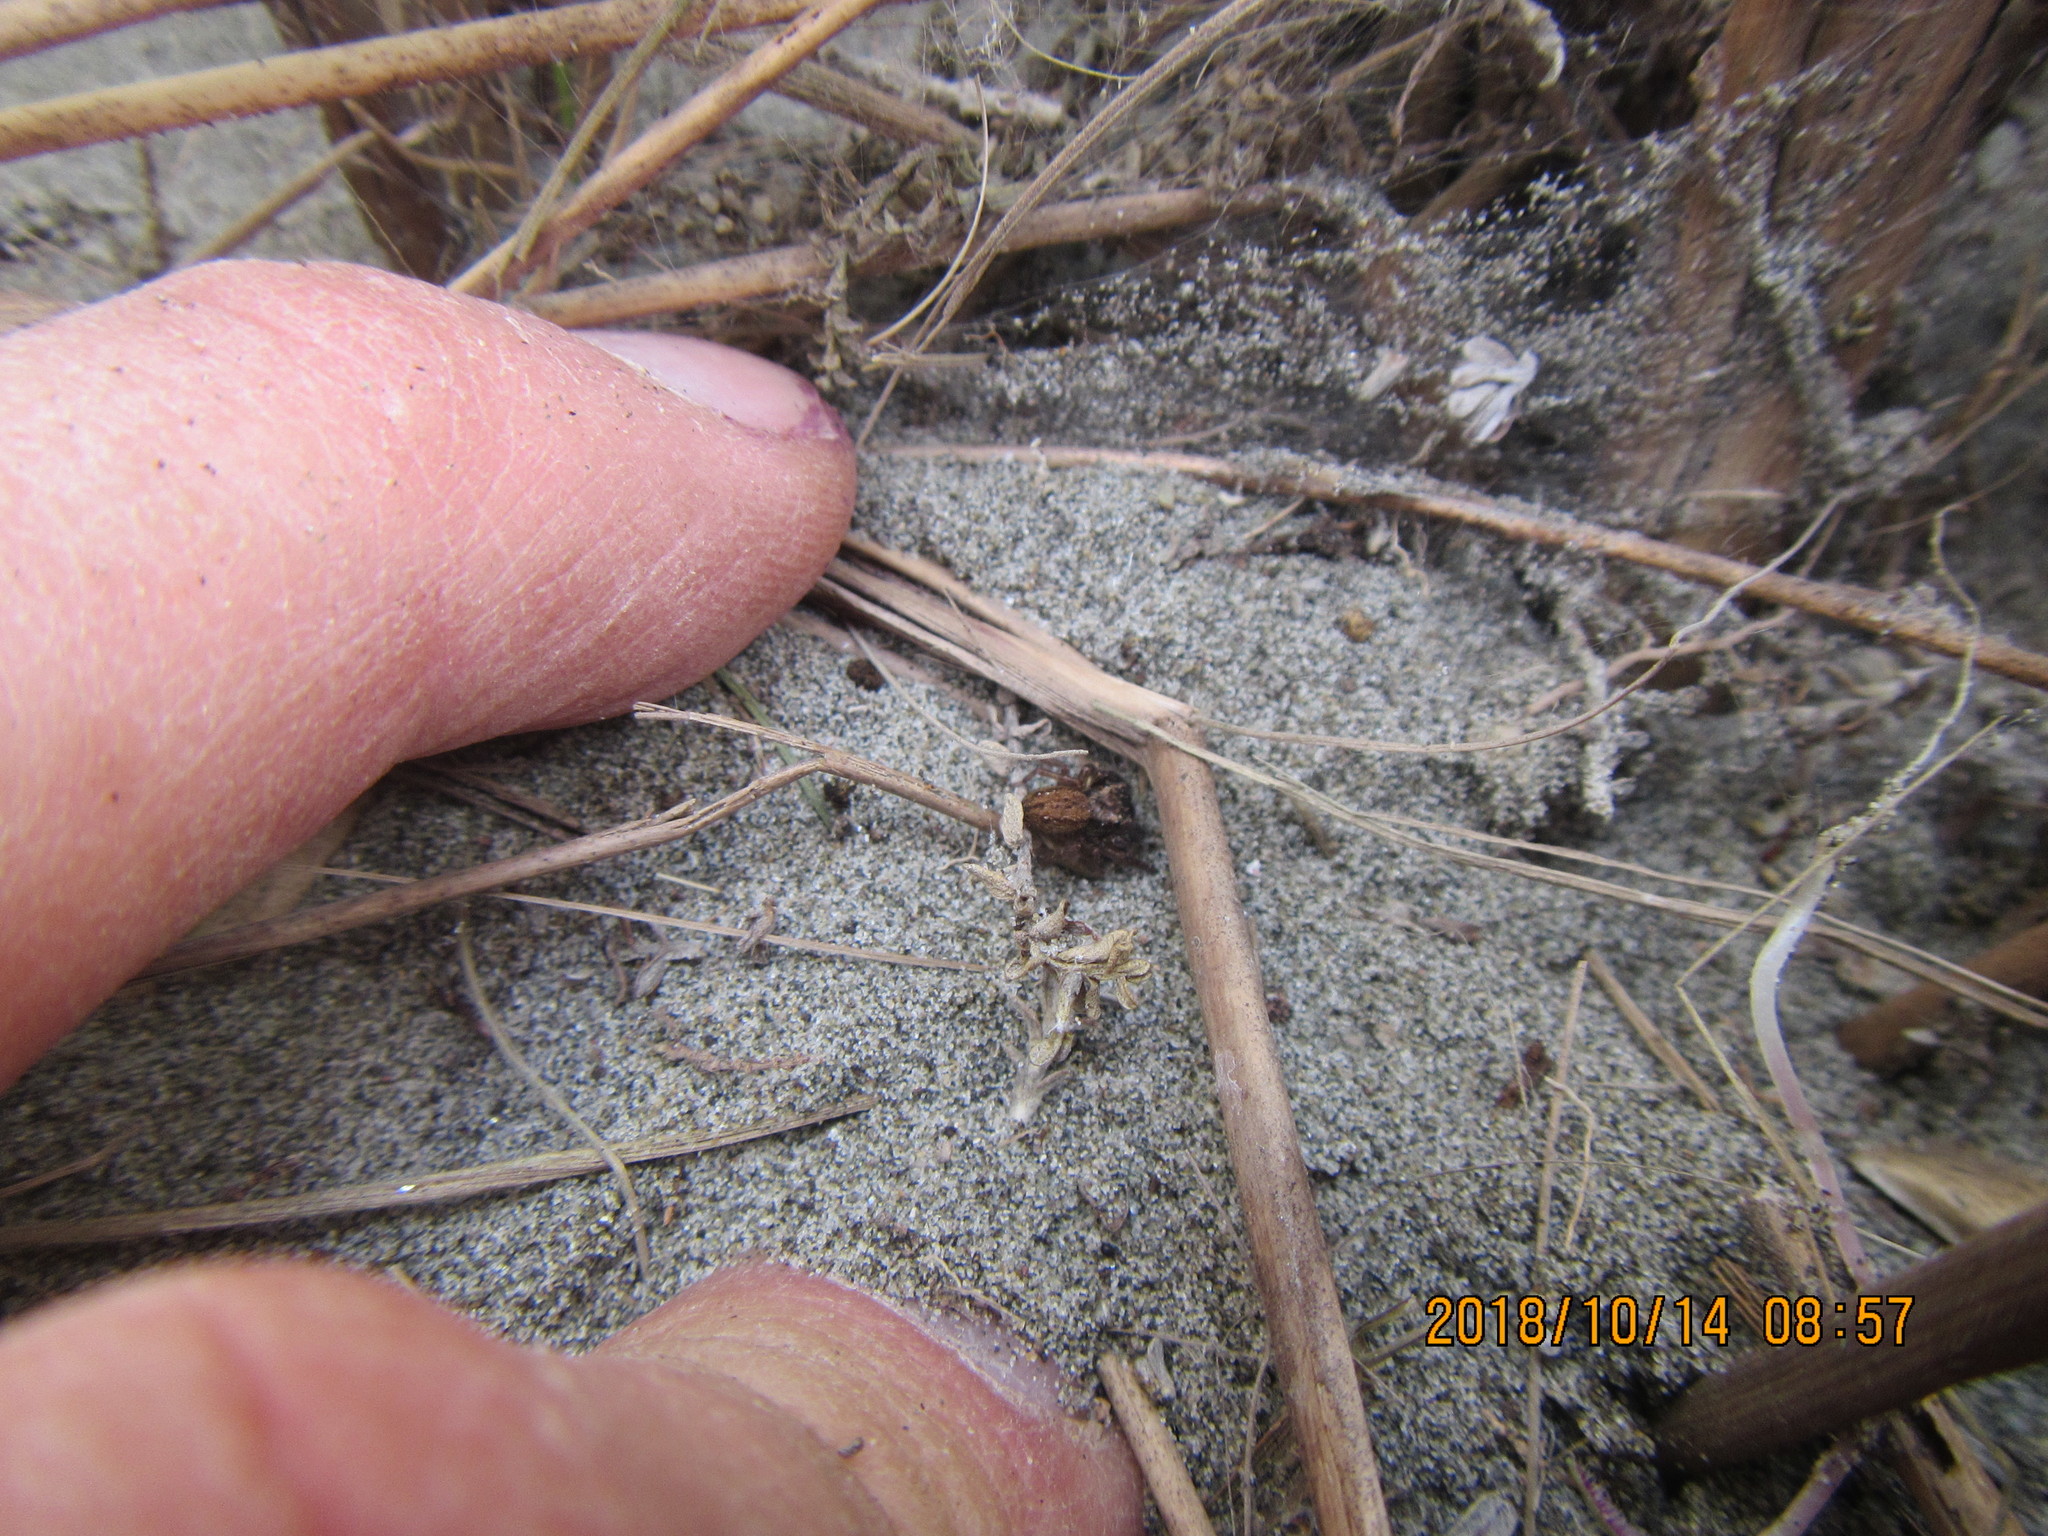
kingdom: Animalia
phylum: Arthropoda
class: Arachnida
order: Araneae
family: Salticidae
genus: Trite
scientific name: Trite auricoma
